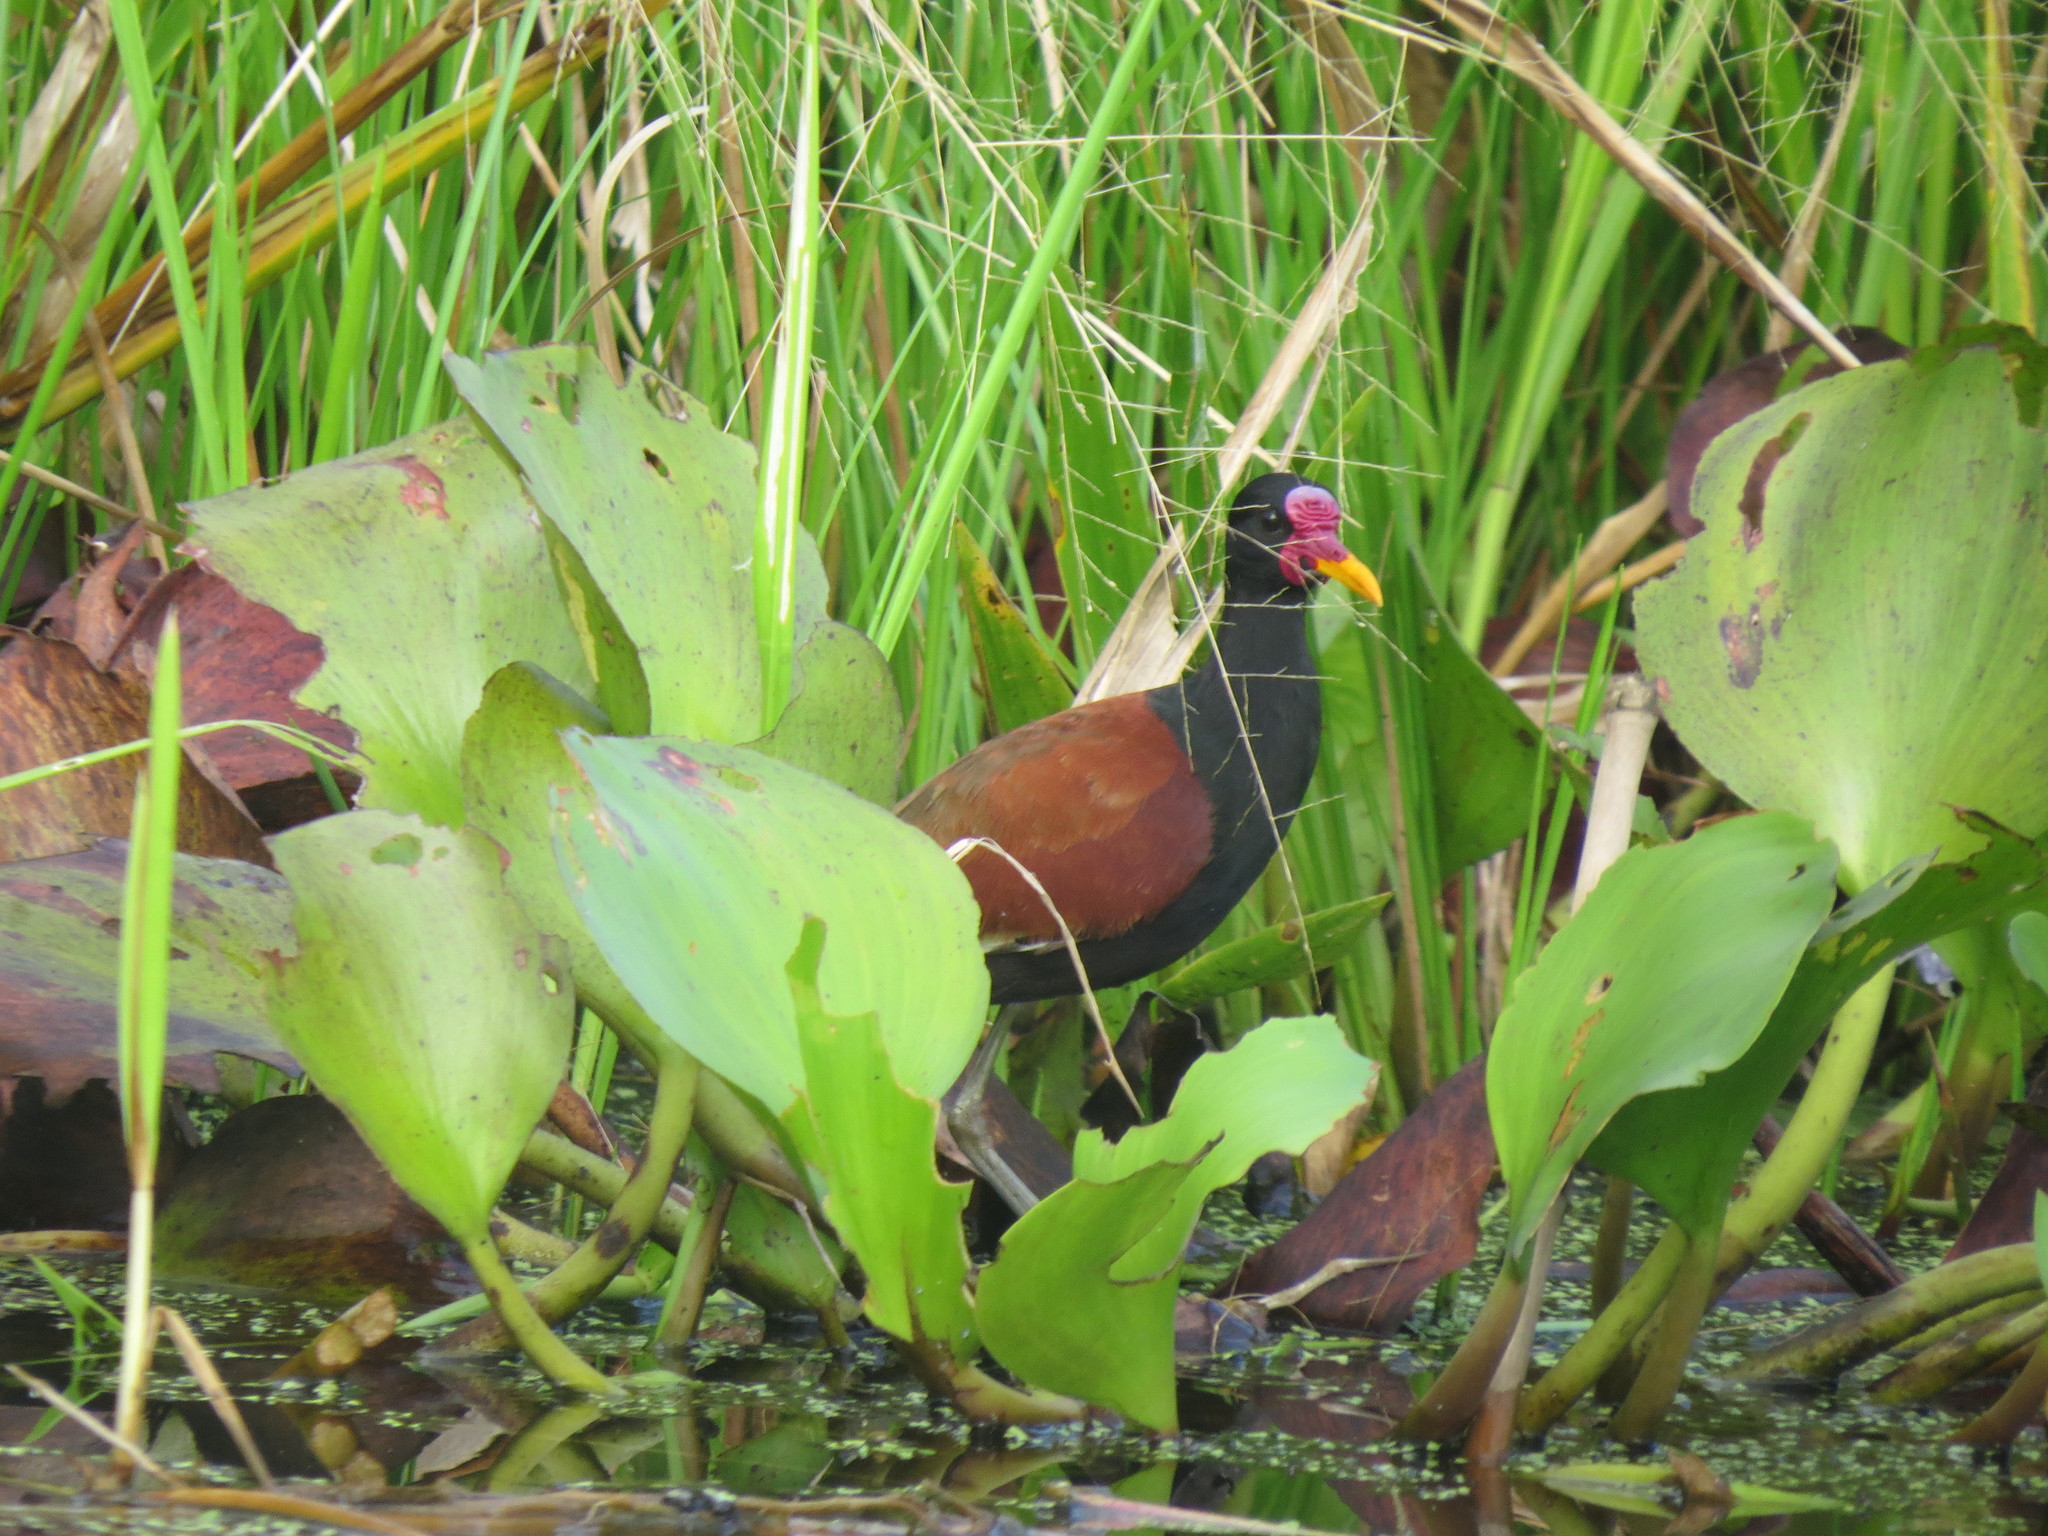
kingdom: Animalia
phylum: Chordata
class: Aves
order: Charadriiformes
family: Jacanidae
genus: Jacana
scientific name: Jacana jacana
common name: Wattled jacana
